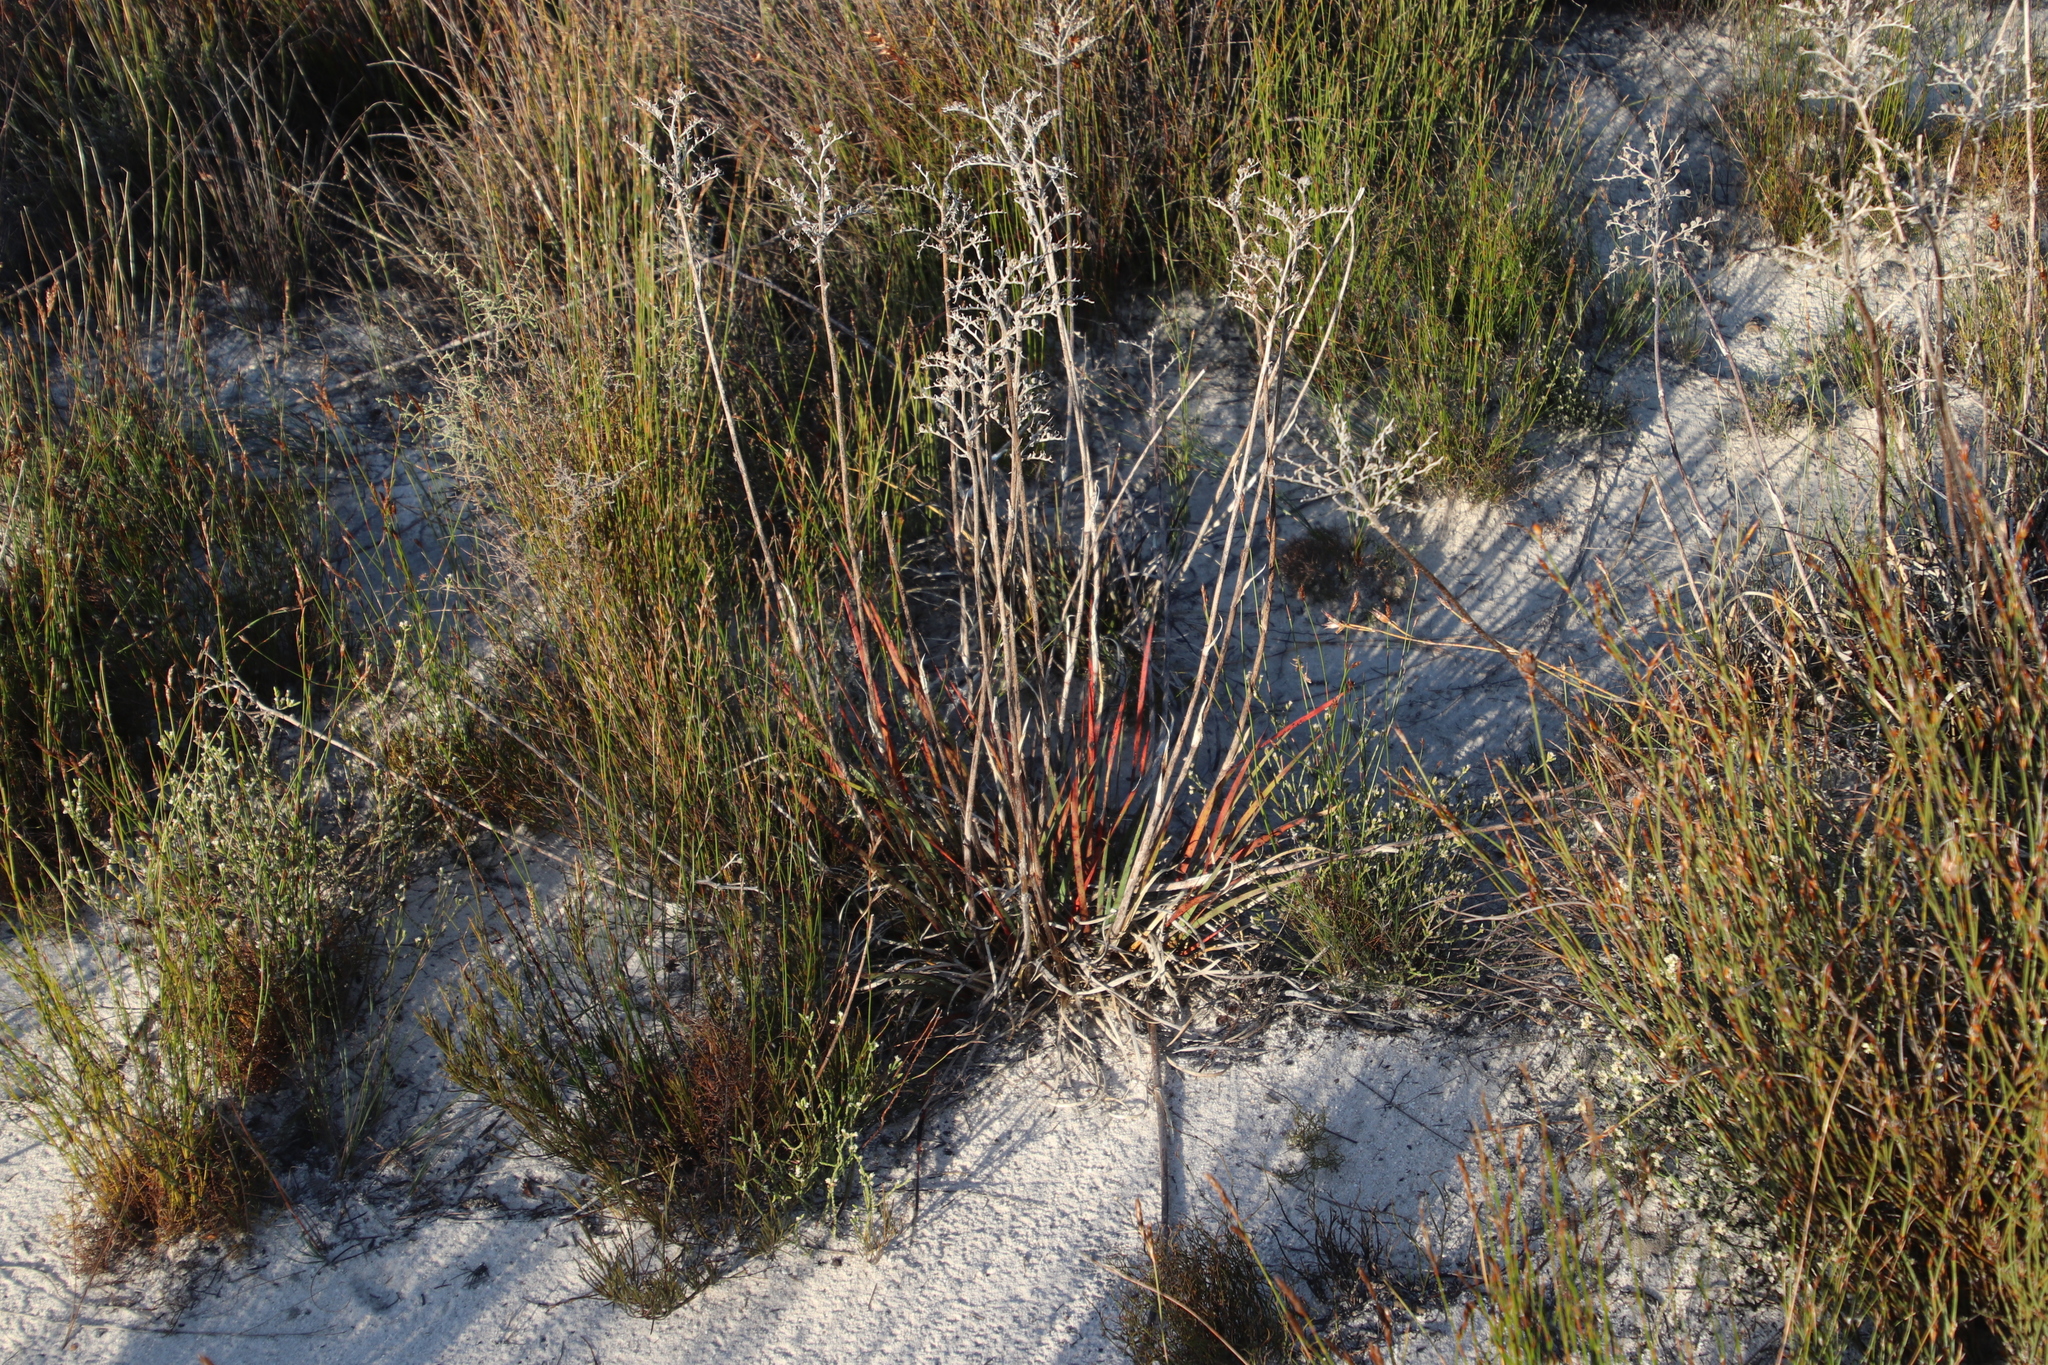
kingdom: Plantae
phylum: Tracheophyta
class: Liliopsida
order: Commelinales
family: Haemodoraceae
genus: Dilatris
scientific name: Dilatris ixioides
